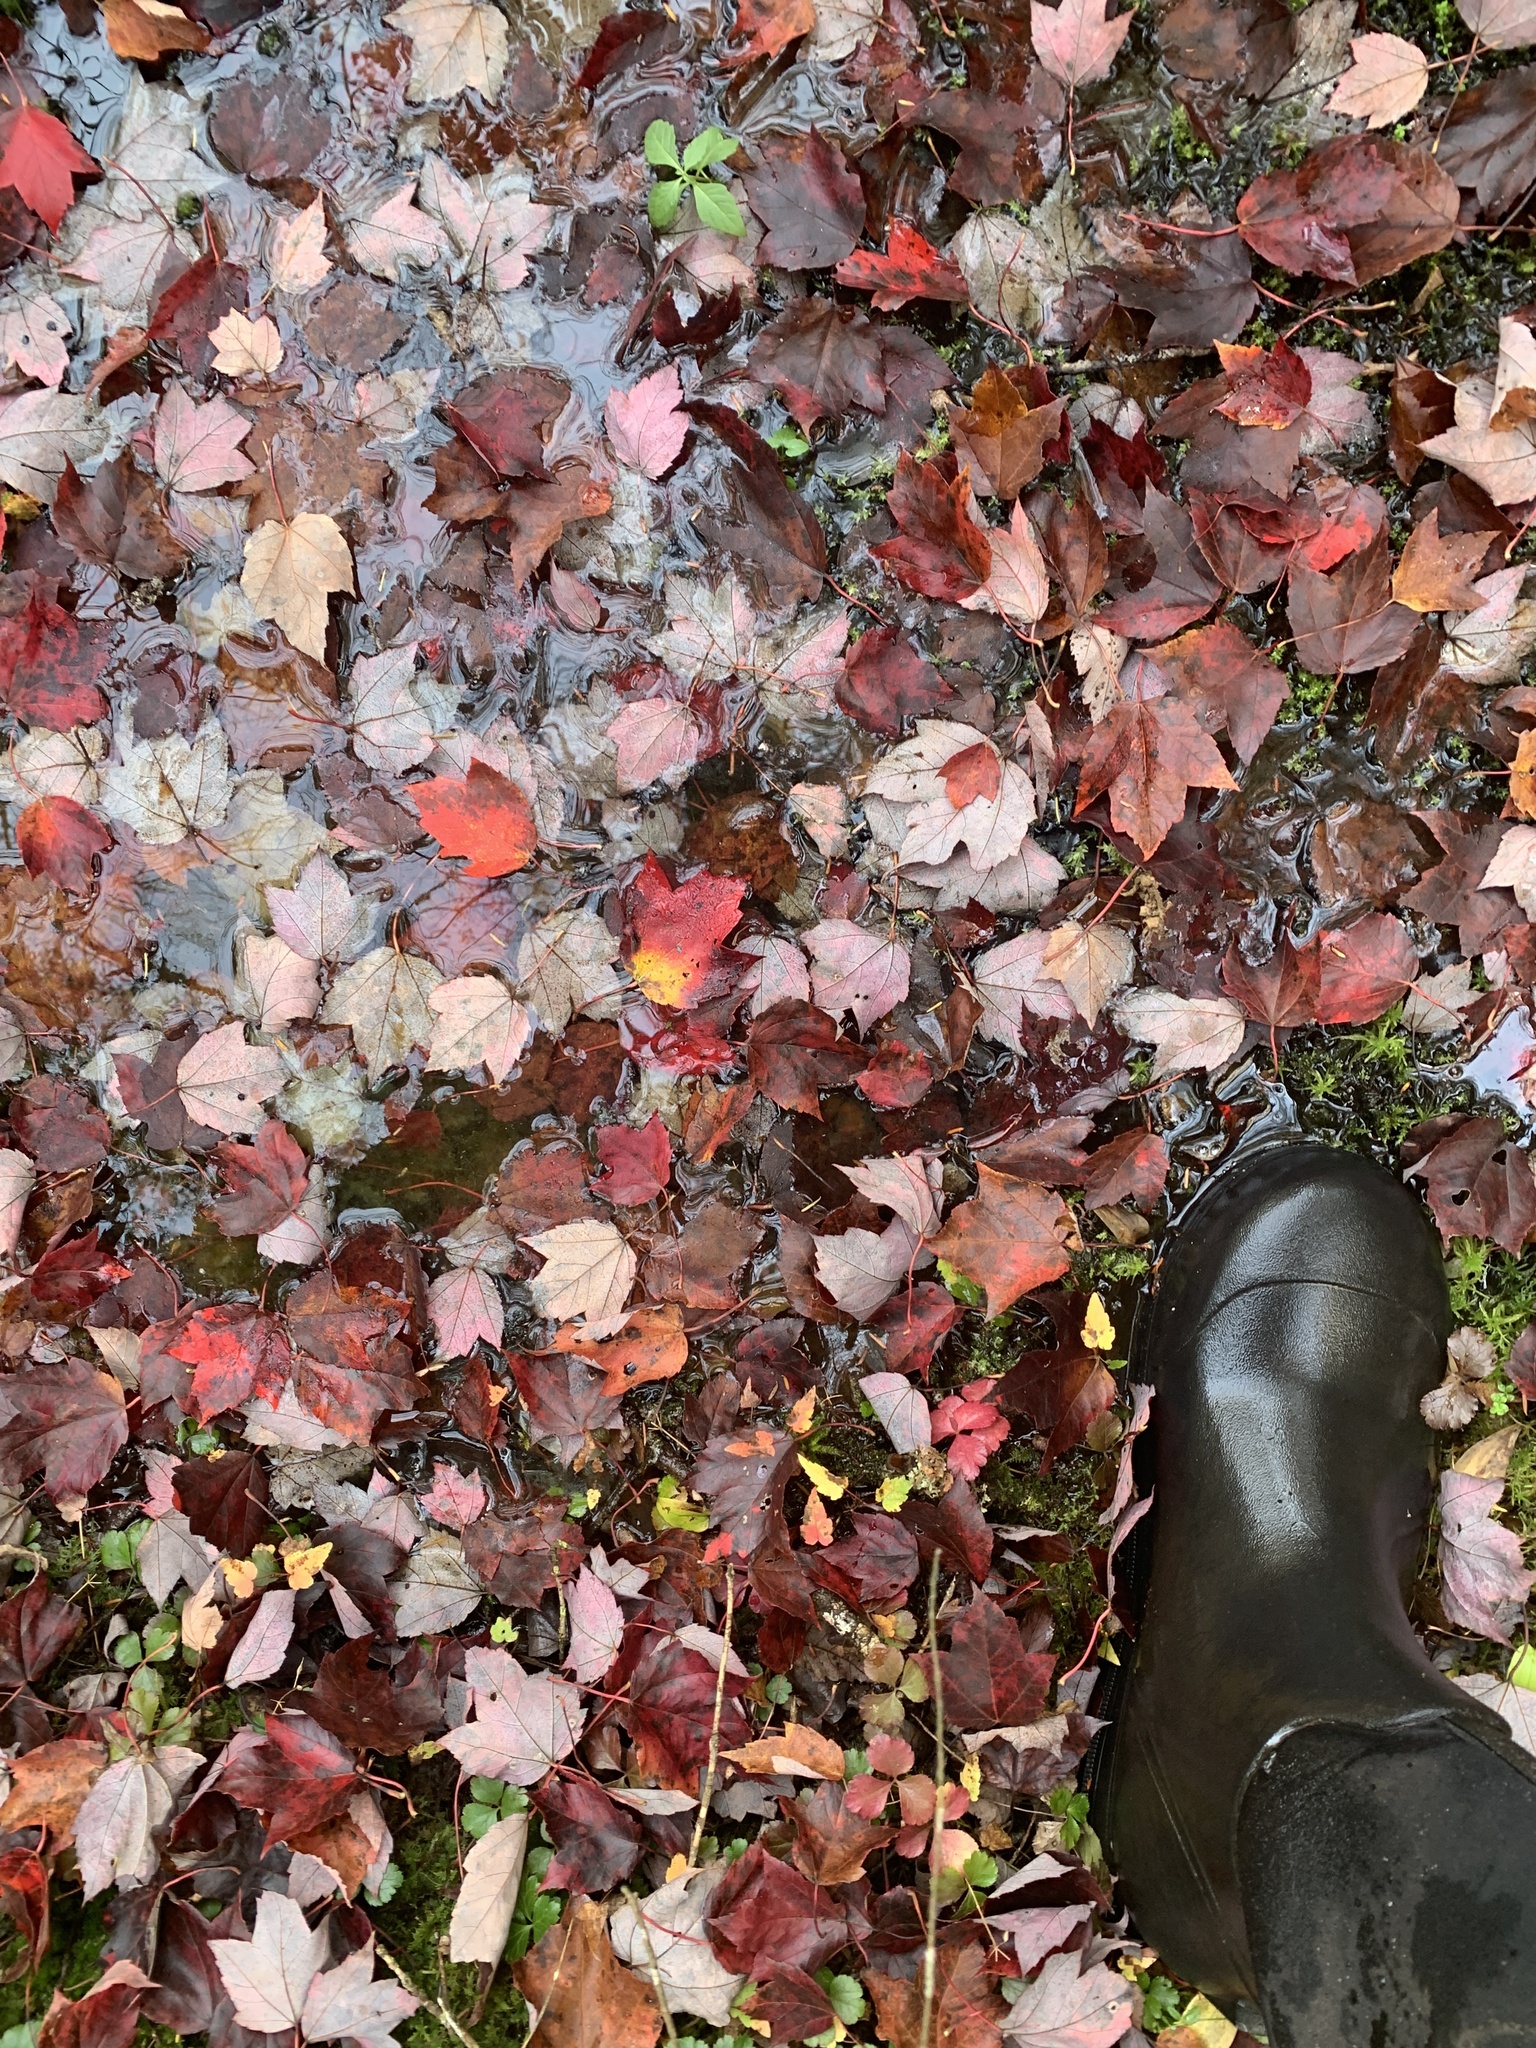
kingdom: Plantae
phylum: Tracheophyta
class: Magnoliopsida
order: Sapindales
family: Sapindaceae
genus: Acer
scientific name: Acer rubrum
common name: Red maple
